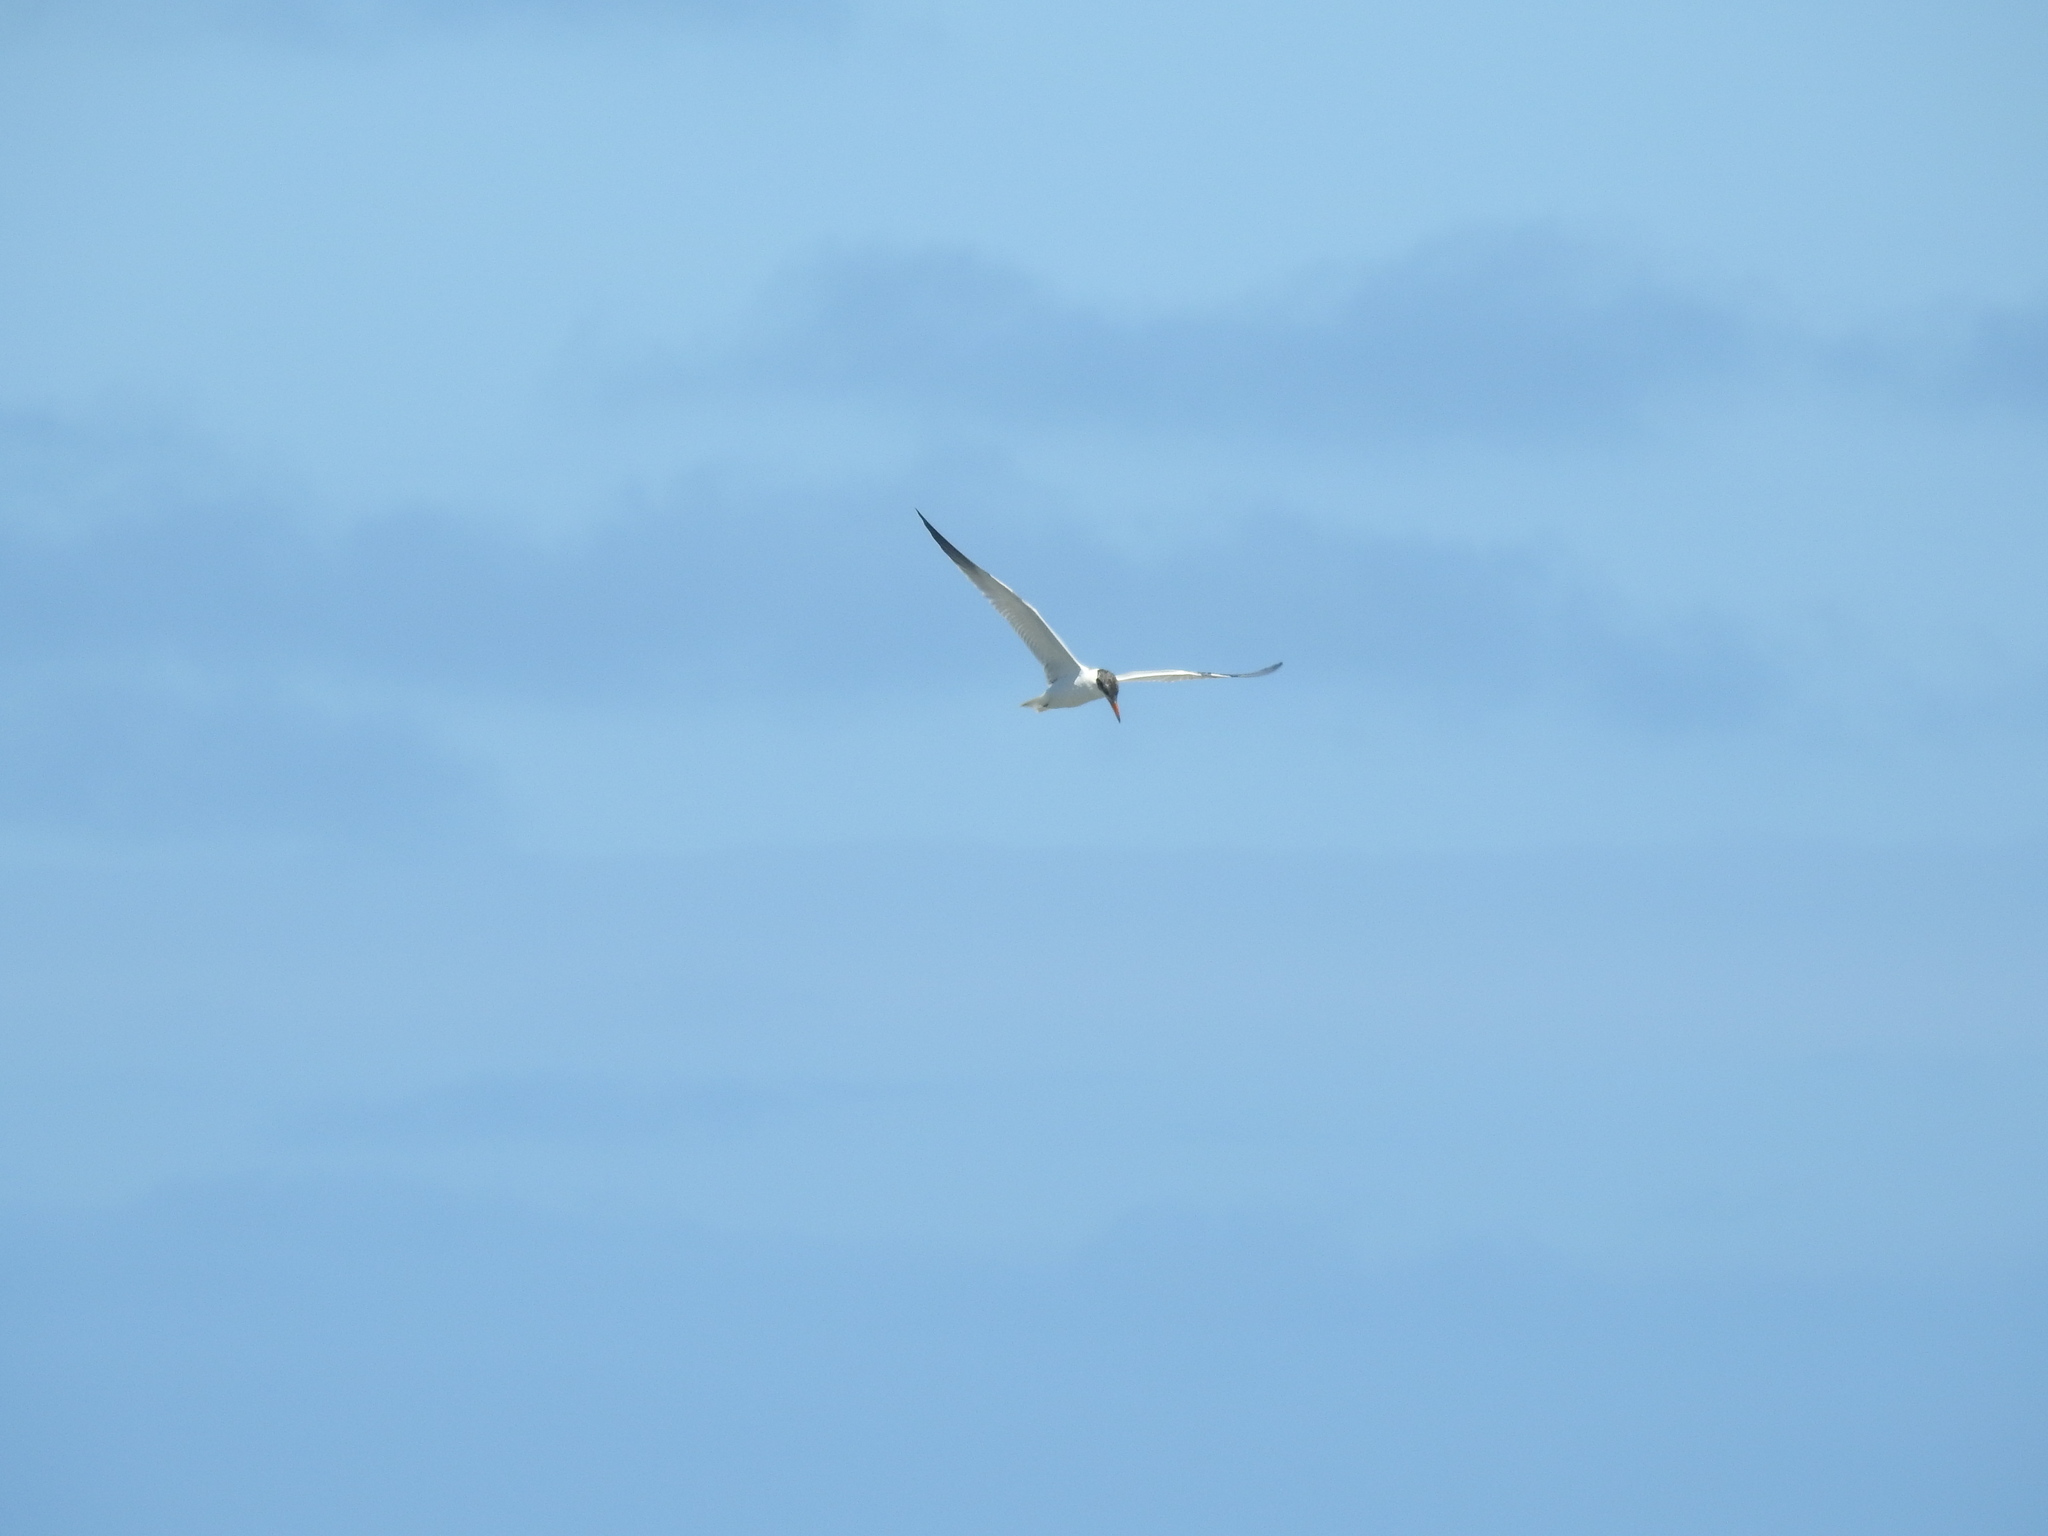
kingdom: Animalia
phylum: Chordata
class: Aves
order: Charadriiformes
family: Laridae
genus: Hydroprogne
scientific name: Hydroprogne caspia
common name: Caspian tern
